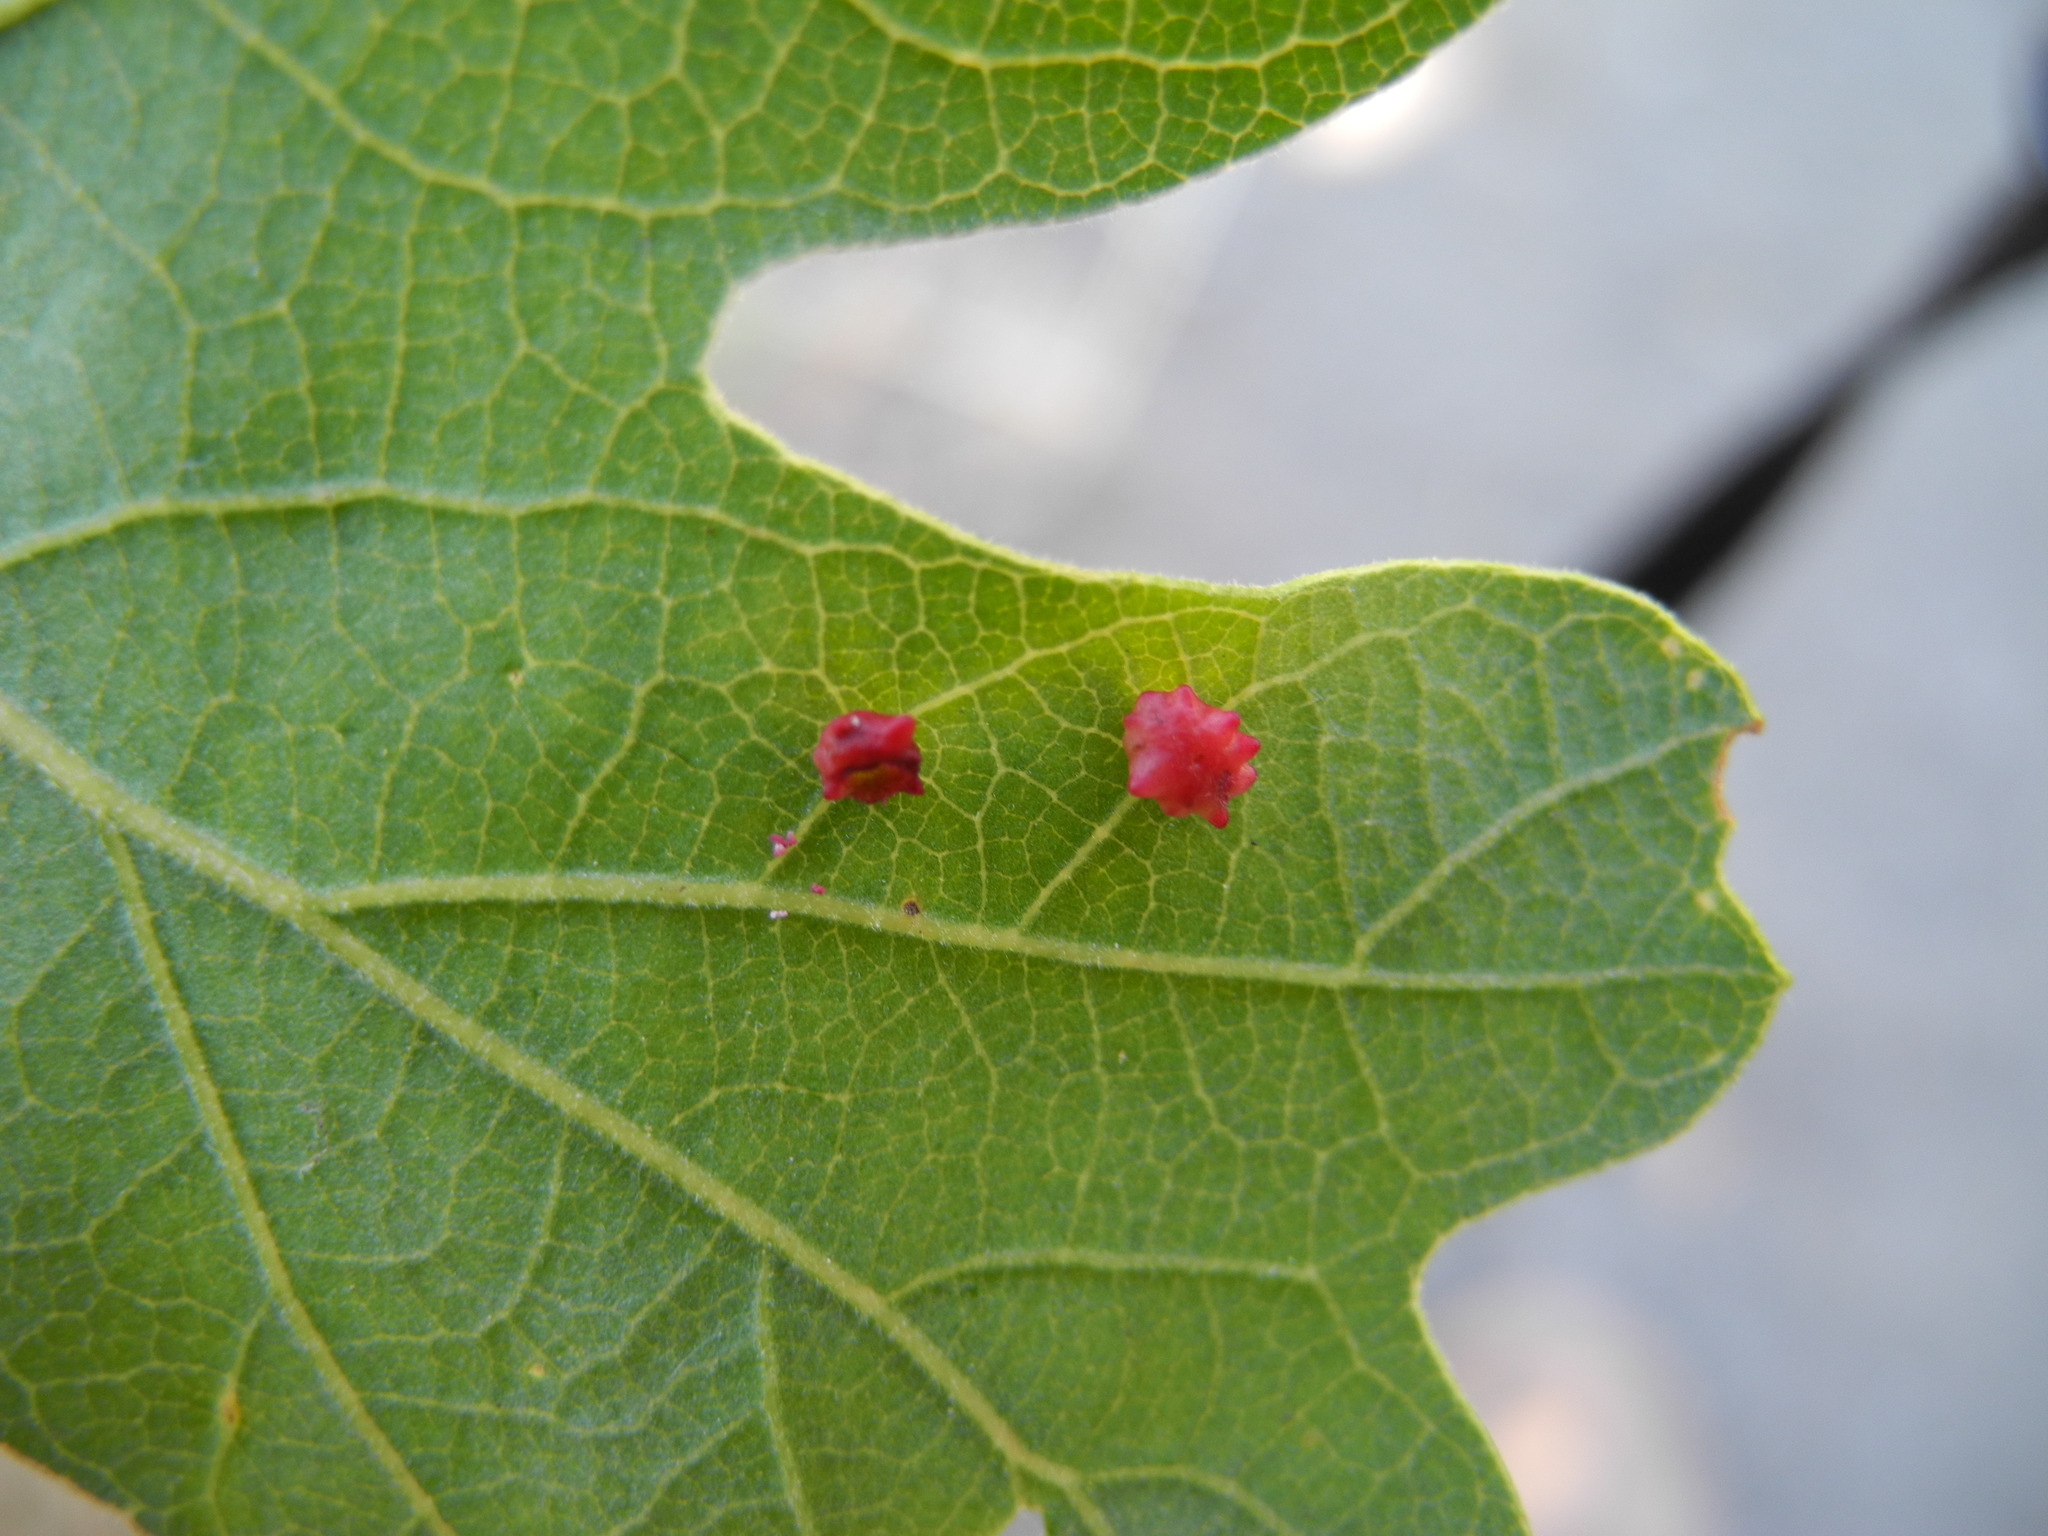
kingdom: Animalia
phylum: Arthropoda
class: Insecta
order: Hymenoptera
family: Cynipidae
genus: Cynips
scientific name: Cynips
